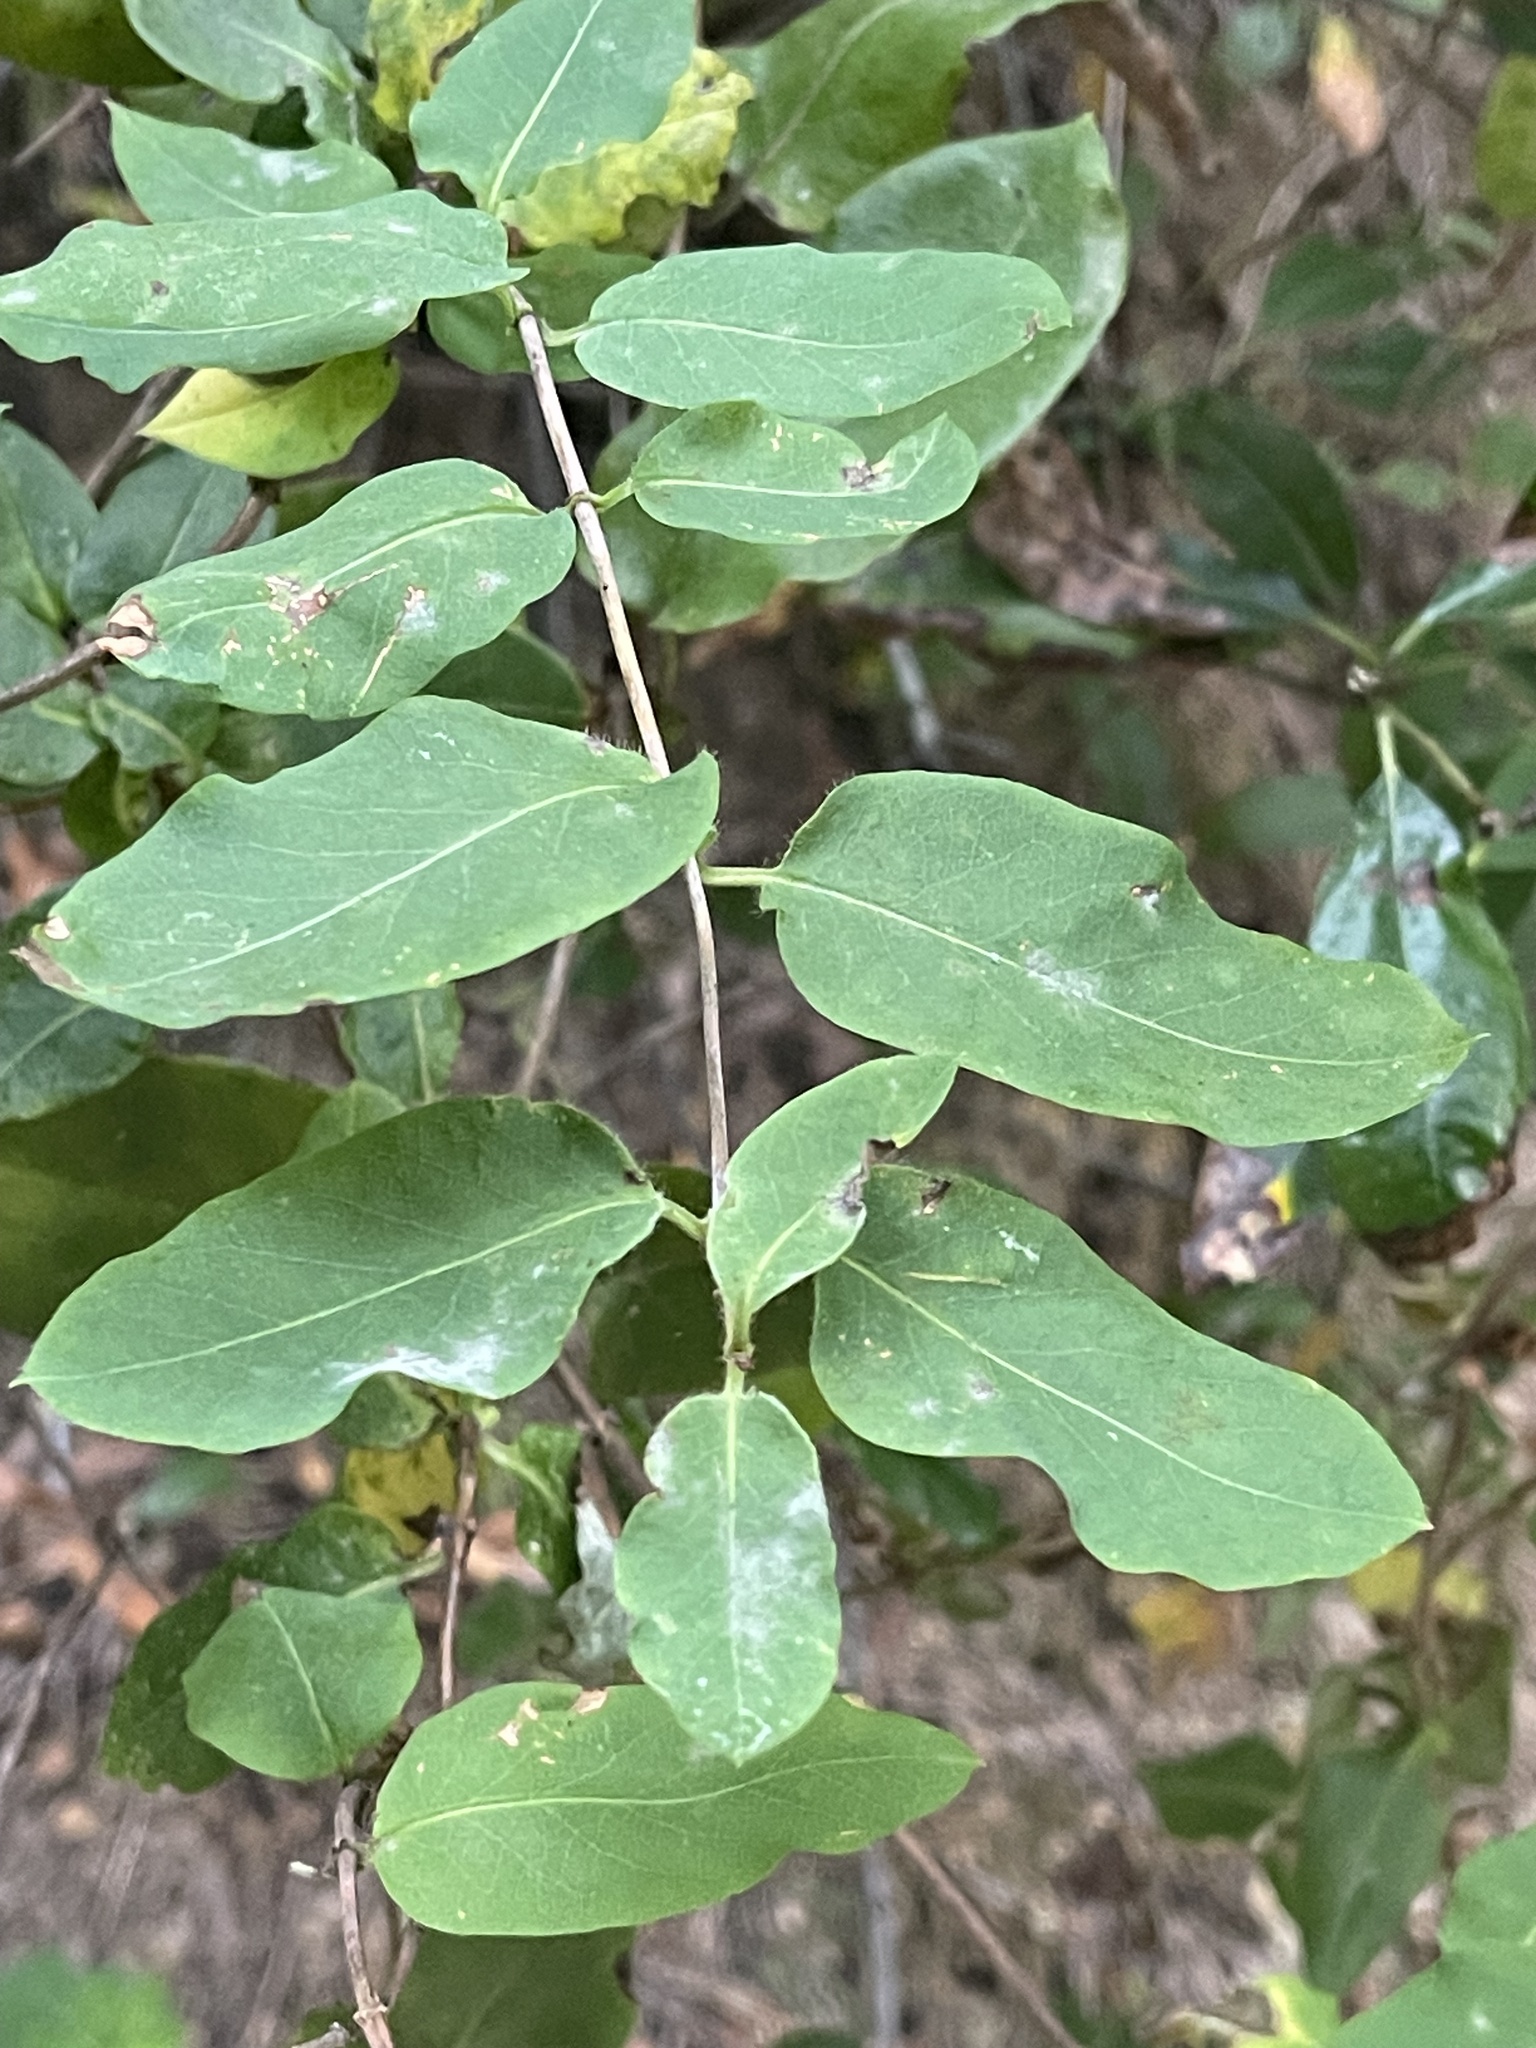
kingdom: Plantae
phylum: Tracheophyta
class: Magnoliopsida
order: Dipsacales
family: Caprifoliaceae
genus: Lonicera
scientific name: Lonicera hispidula
